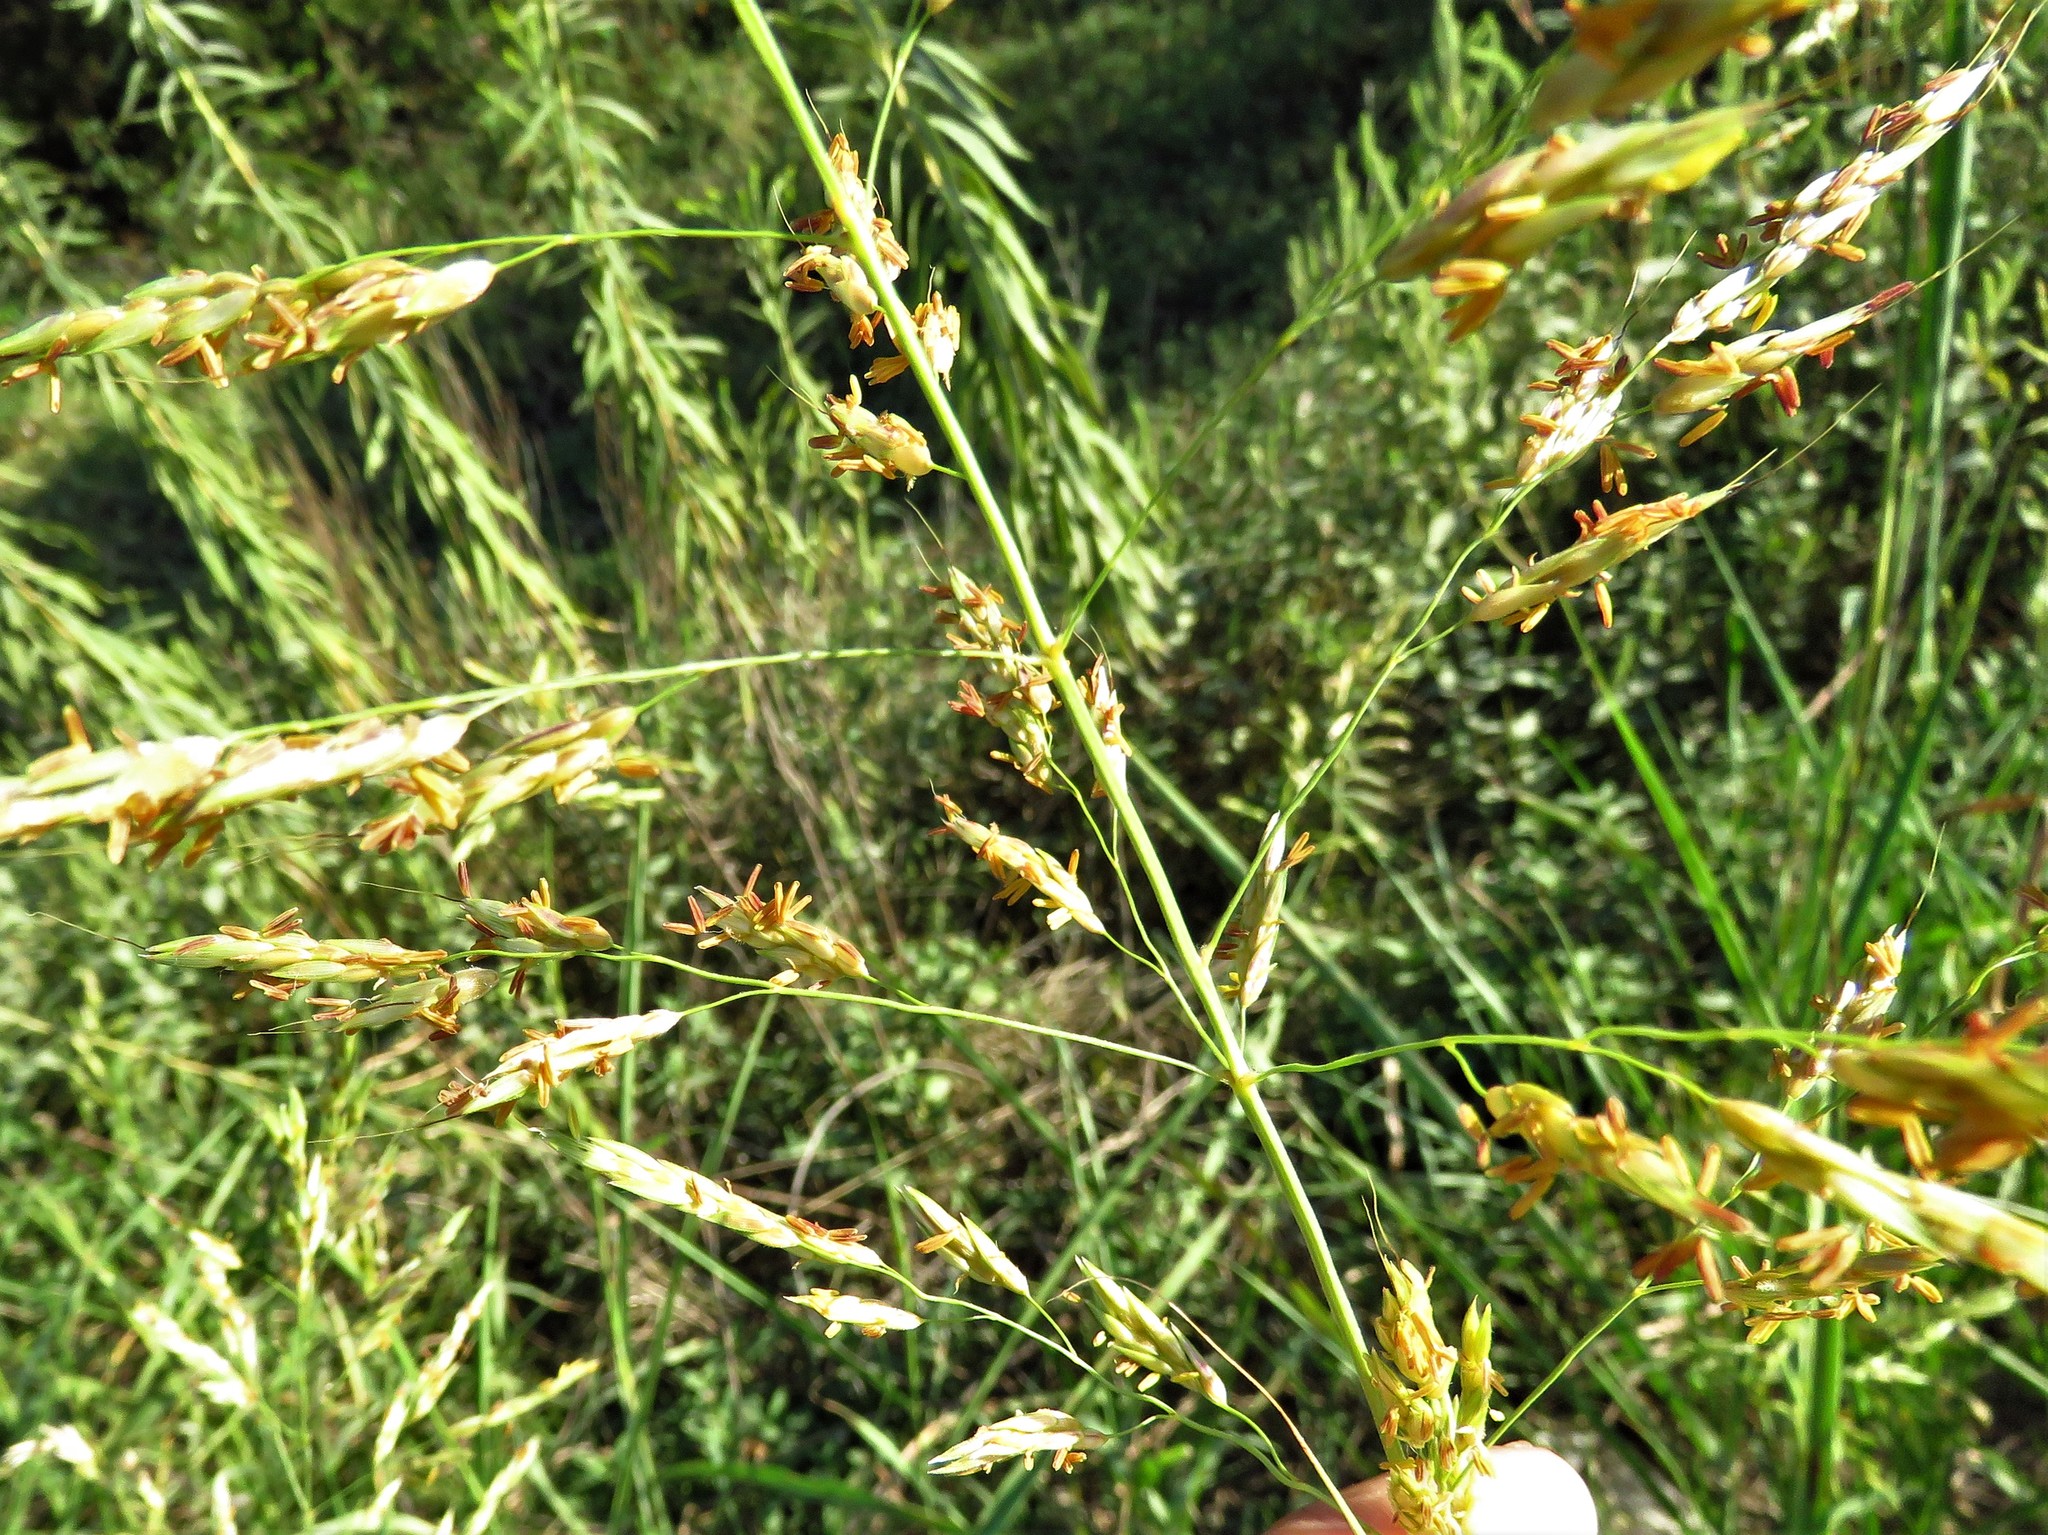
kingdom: Plantae
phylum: Tracheophyta
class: Liliopsida
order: Poales
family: Poaceae
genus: Sorghum
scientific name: Sorghum halepense
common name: Johnson-grass
